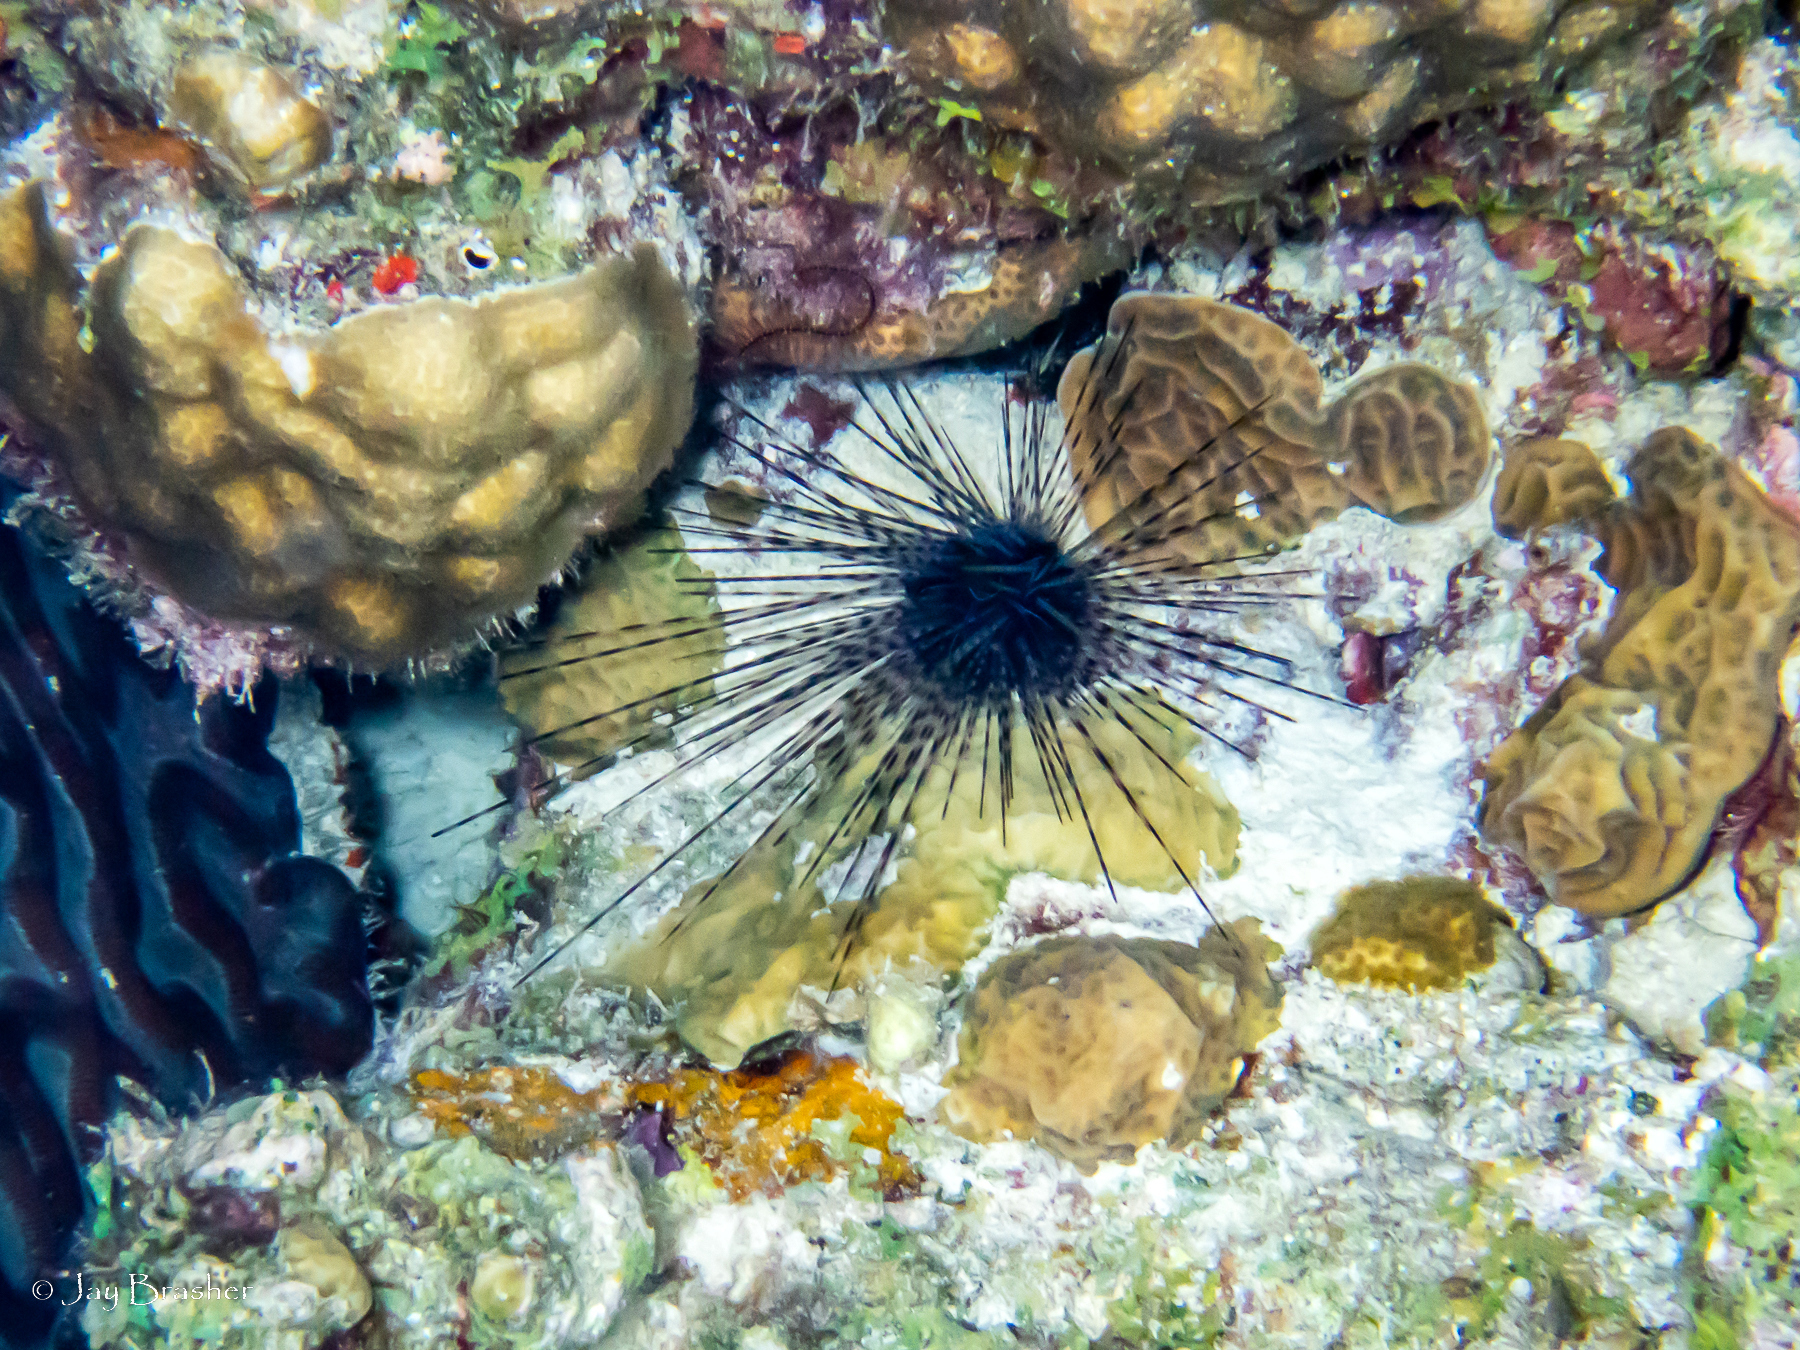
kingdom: Animalia
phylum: Echinodermata
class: Echinoidea
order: Diadematoida
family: Diadematidae
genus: Diadema
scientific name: Diadema antillarum
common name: Spiny urchin
